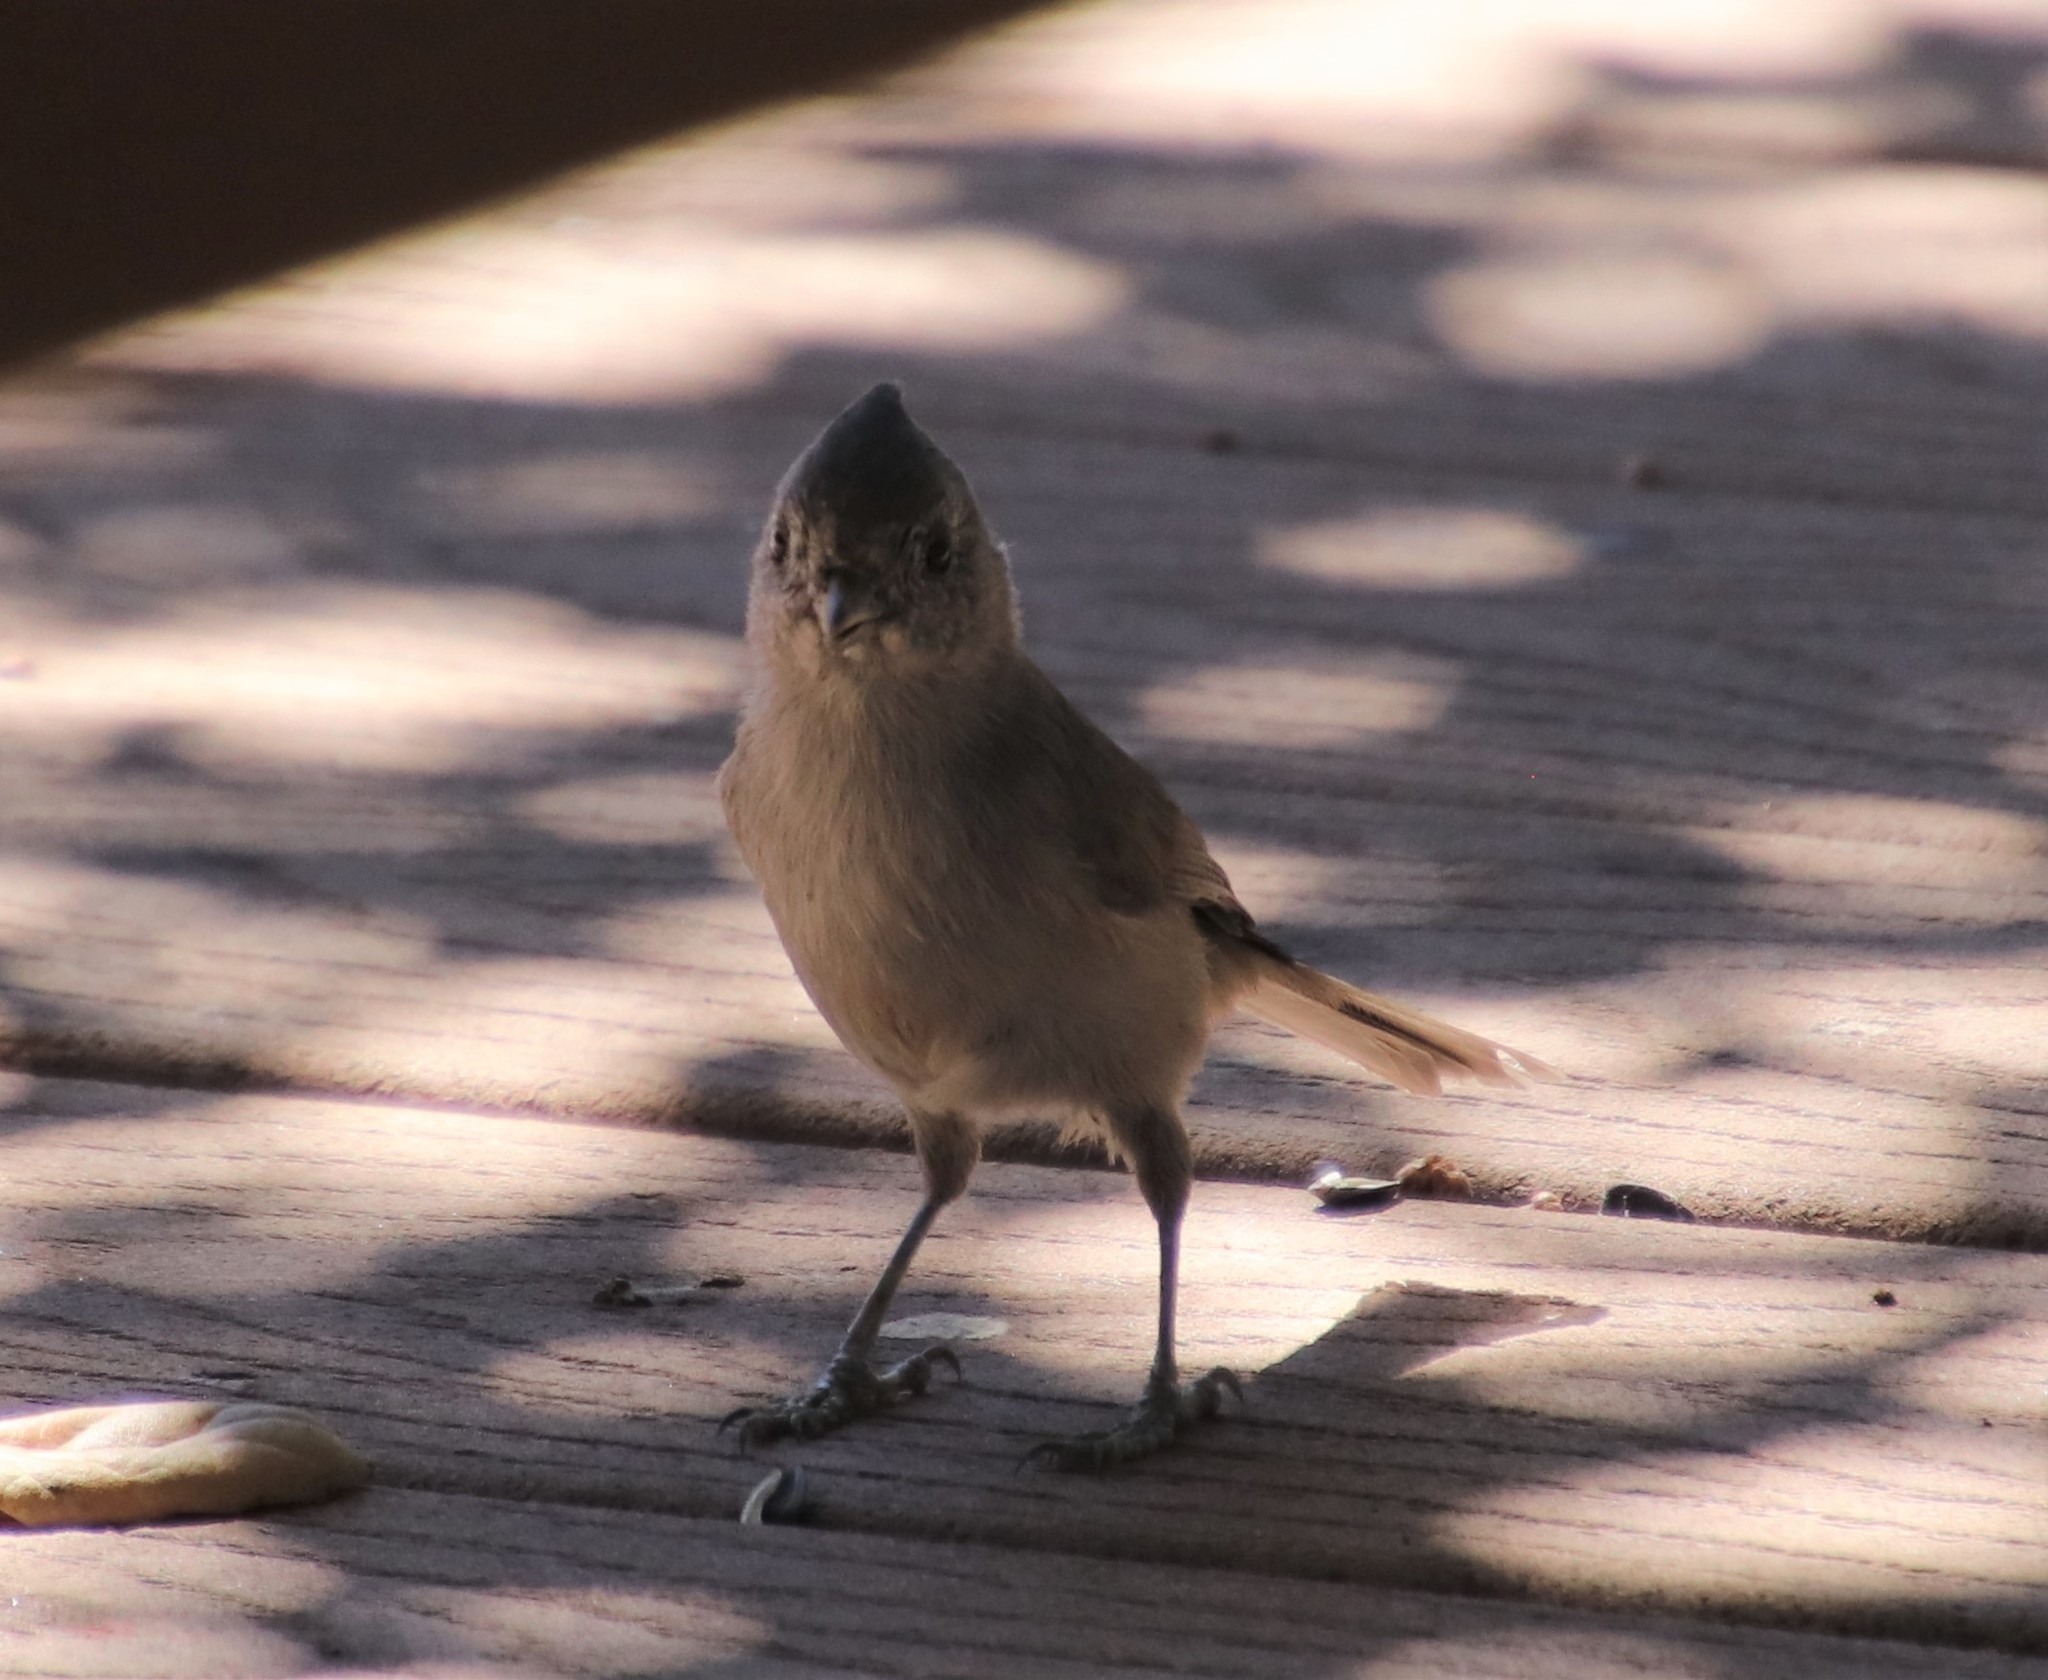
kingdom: Animalia
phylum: Chordata
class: Aves
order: Passeriformes
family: Paridae
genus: Baeolophus
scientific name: Baeolophus inornatus
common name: Oak titmouse
